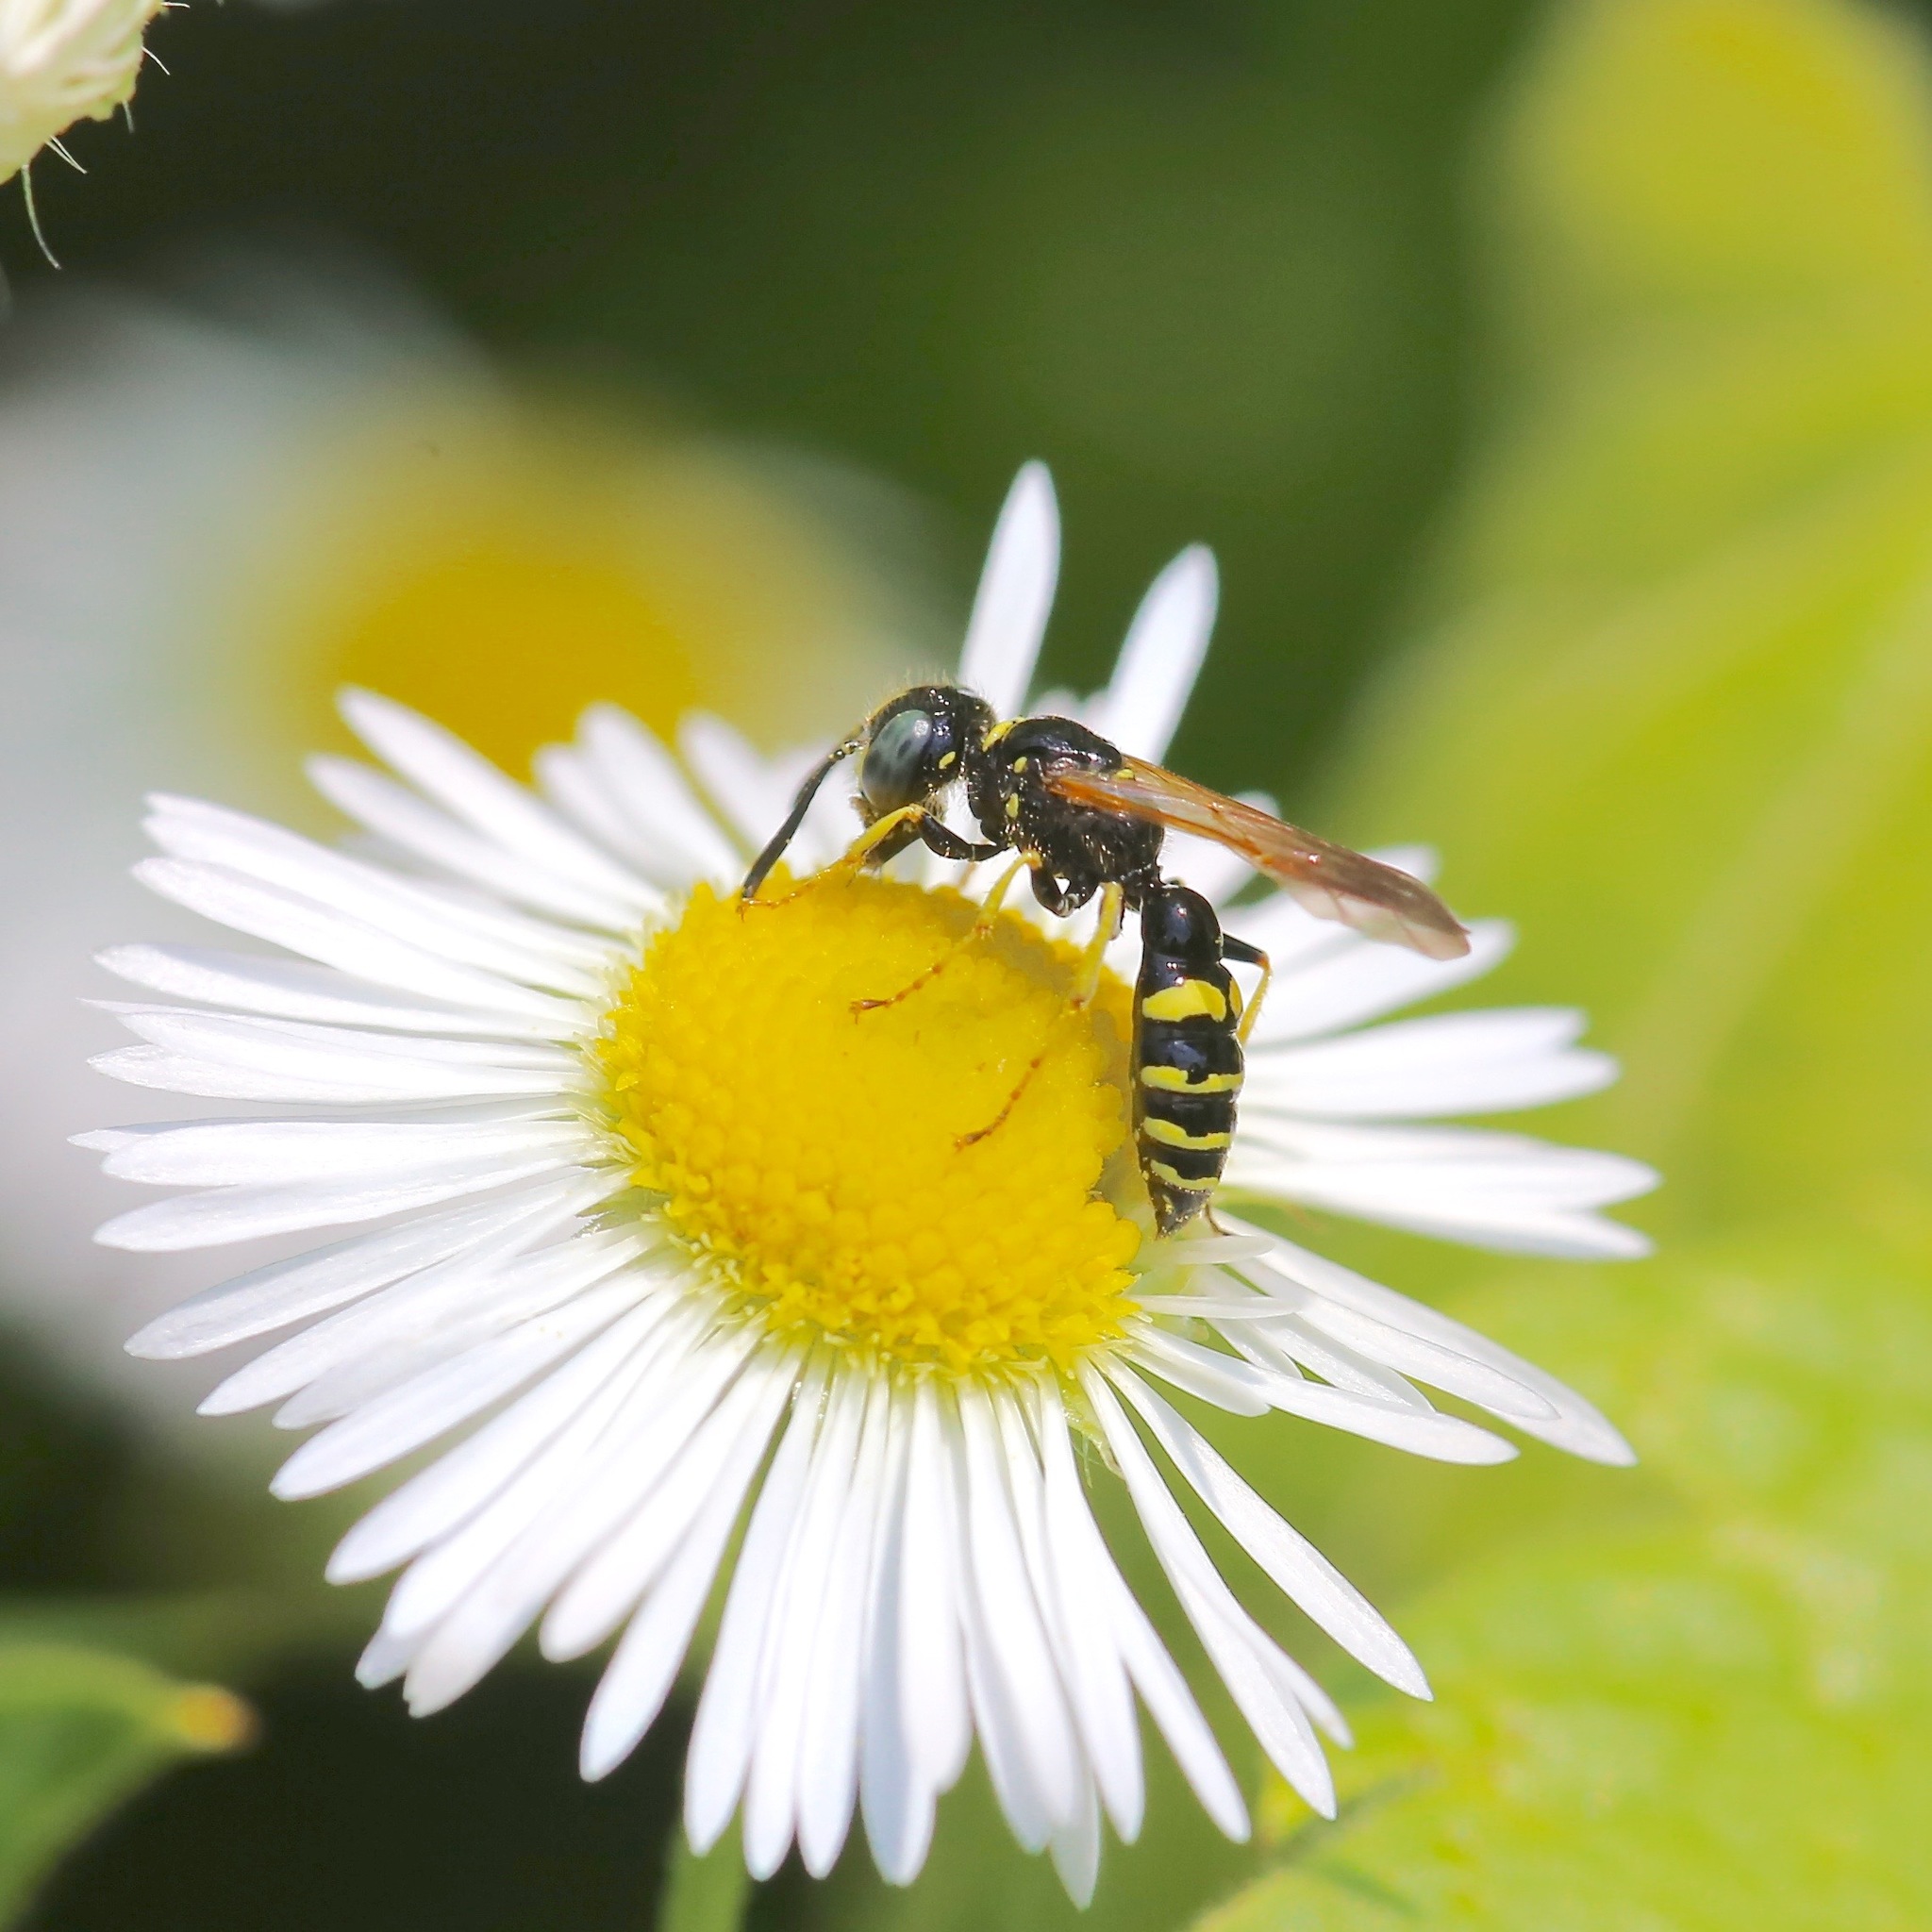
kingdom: Animalia
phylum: Arthropoda
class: Insecta
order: Hymenoptera
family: Crabronidae
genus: Philanthus
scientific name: Philanthus bilunatus
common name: Two moons beewolf
